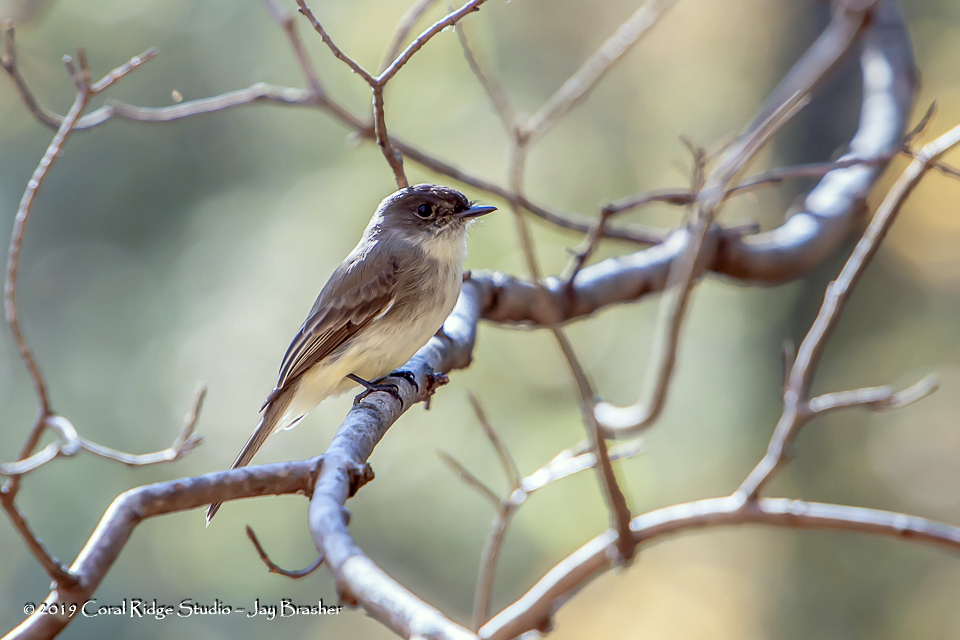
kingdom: Animalia
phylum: Chordata
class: Aves
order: Passeriformes
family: Tyrannidae
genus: Sayornis
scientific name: Sayornis phoebe
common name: Eastern phoebe
